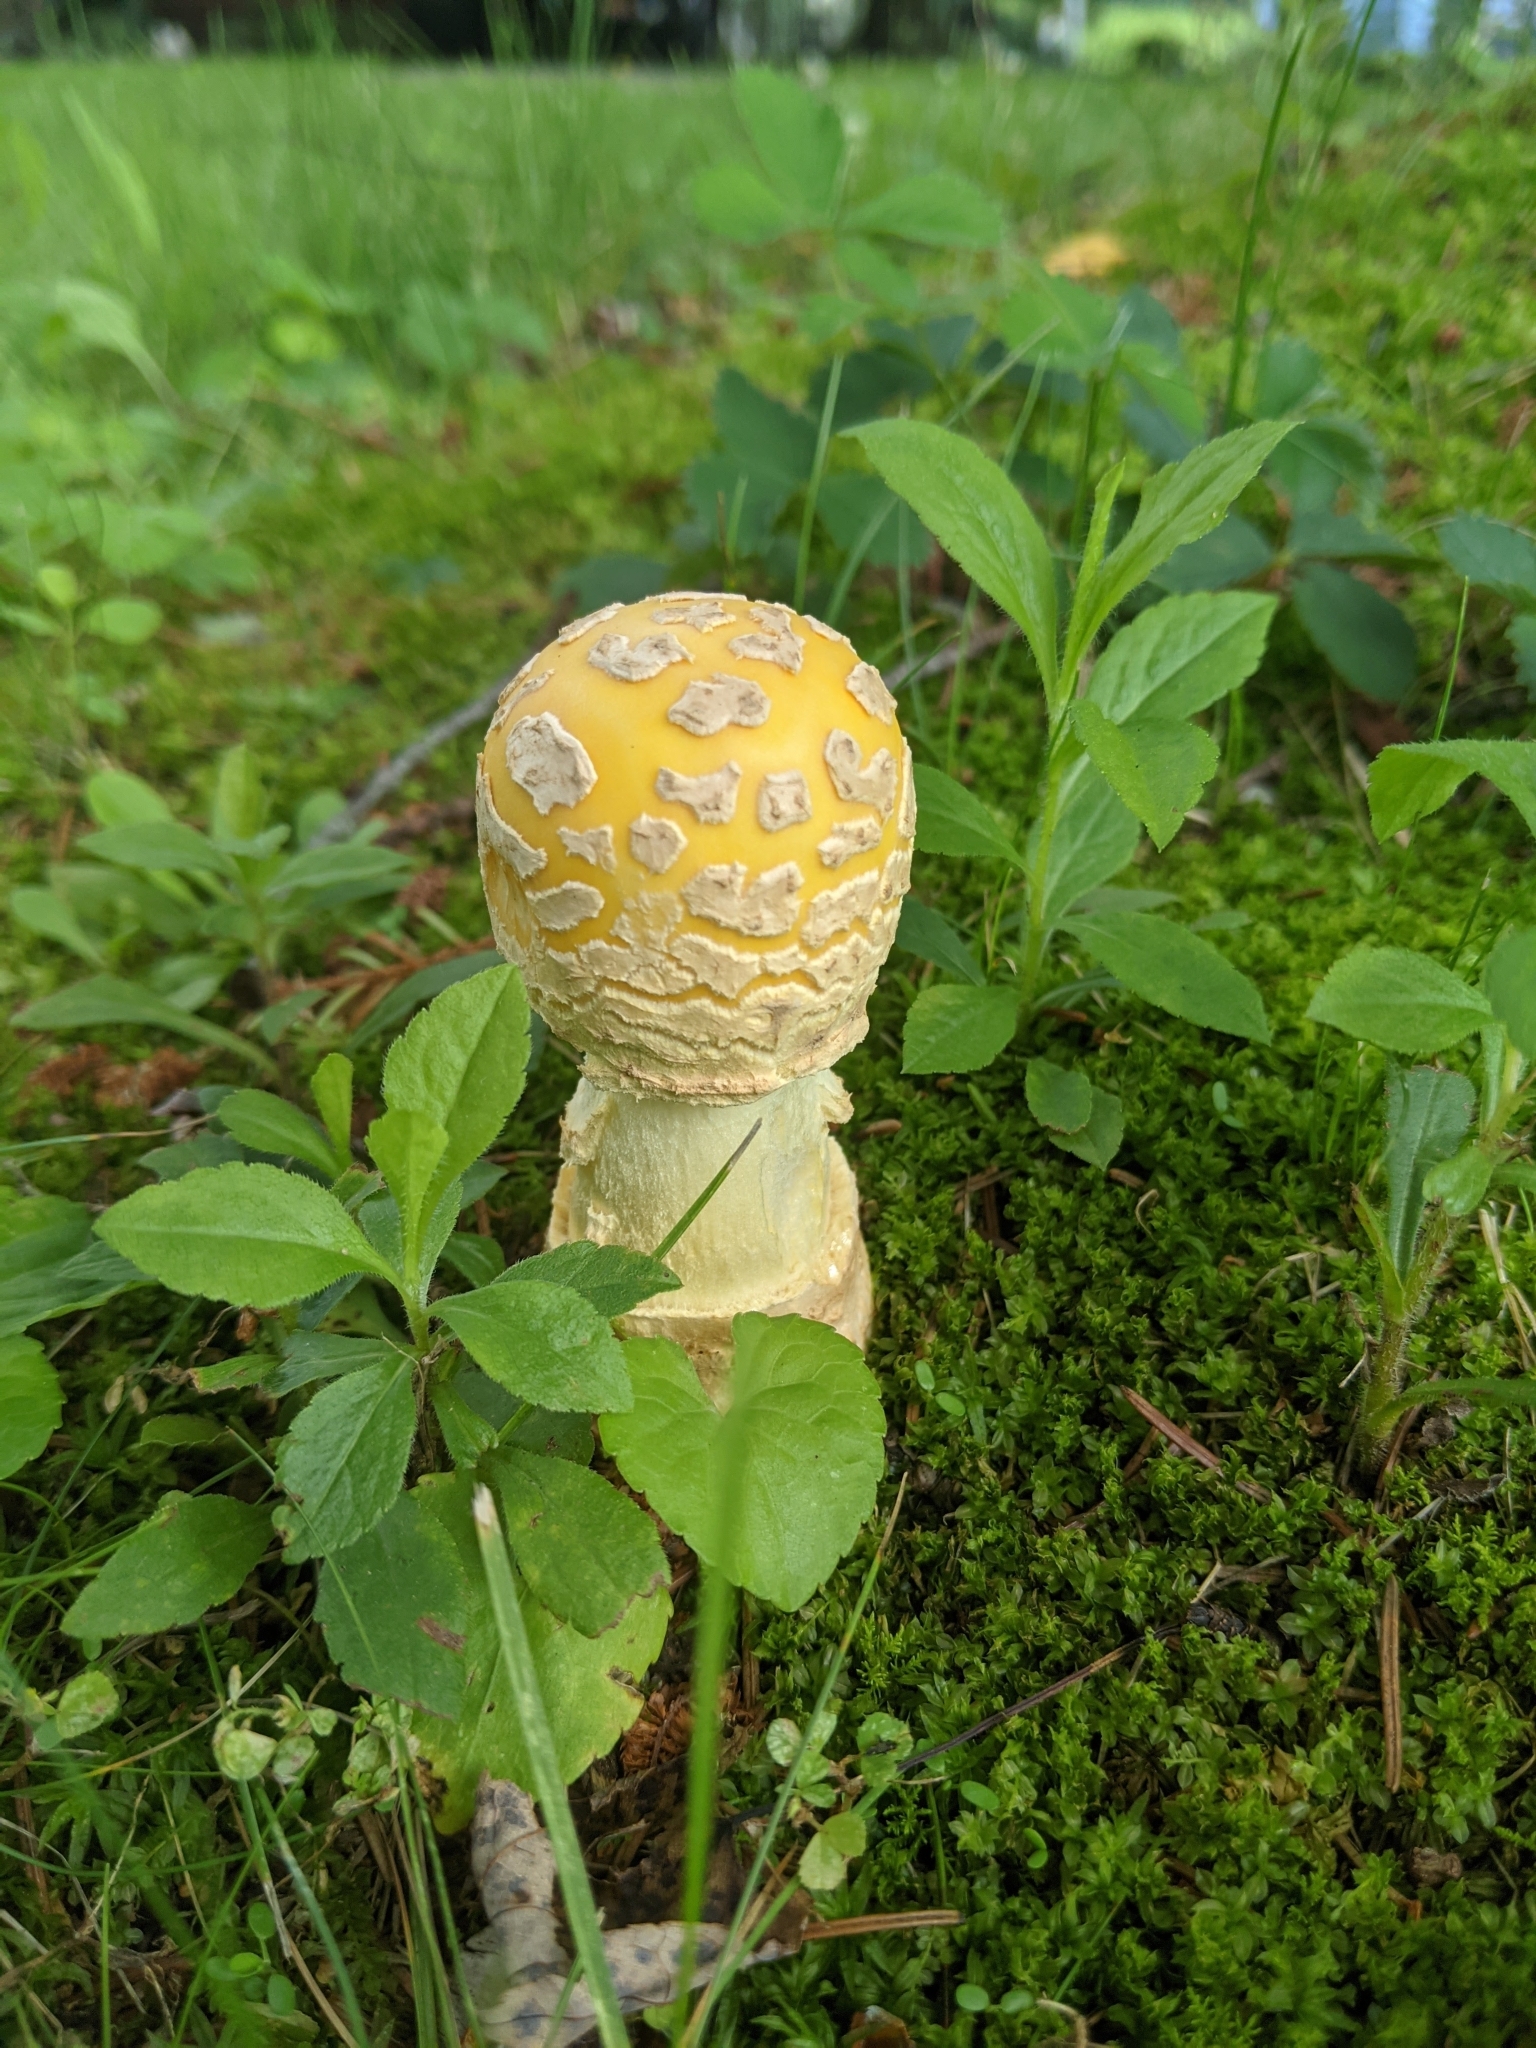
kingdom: Fungi
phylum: Basidiomycota
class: Agaricomycetes
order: Agaricales
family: Amanitaceae
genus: Amanita
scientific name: Amanita muscaria
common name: Fly agaric
